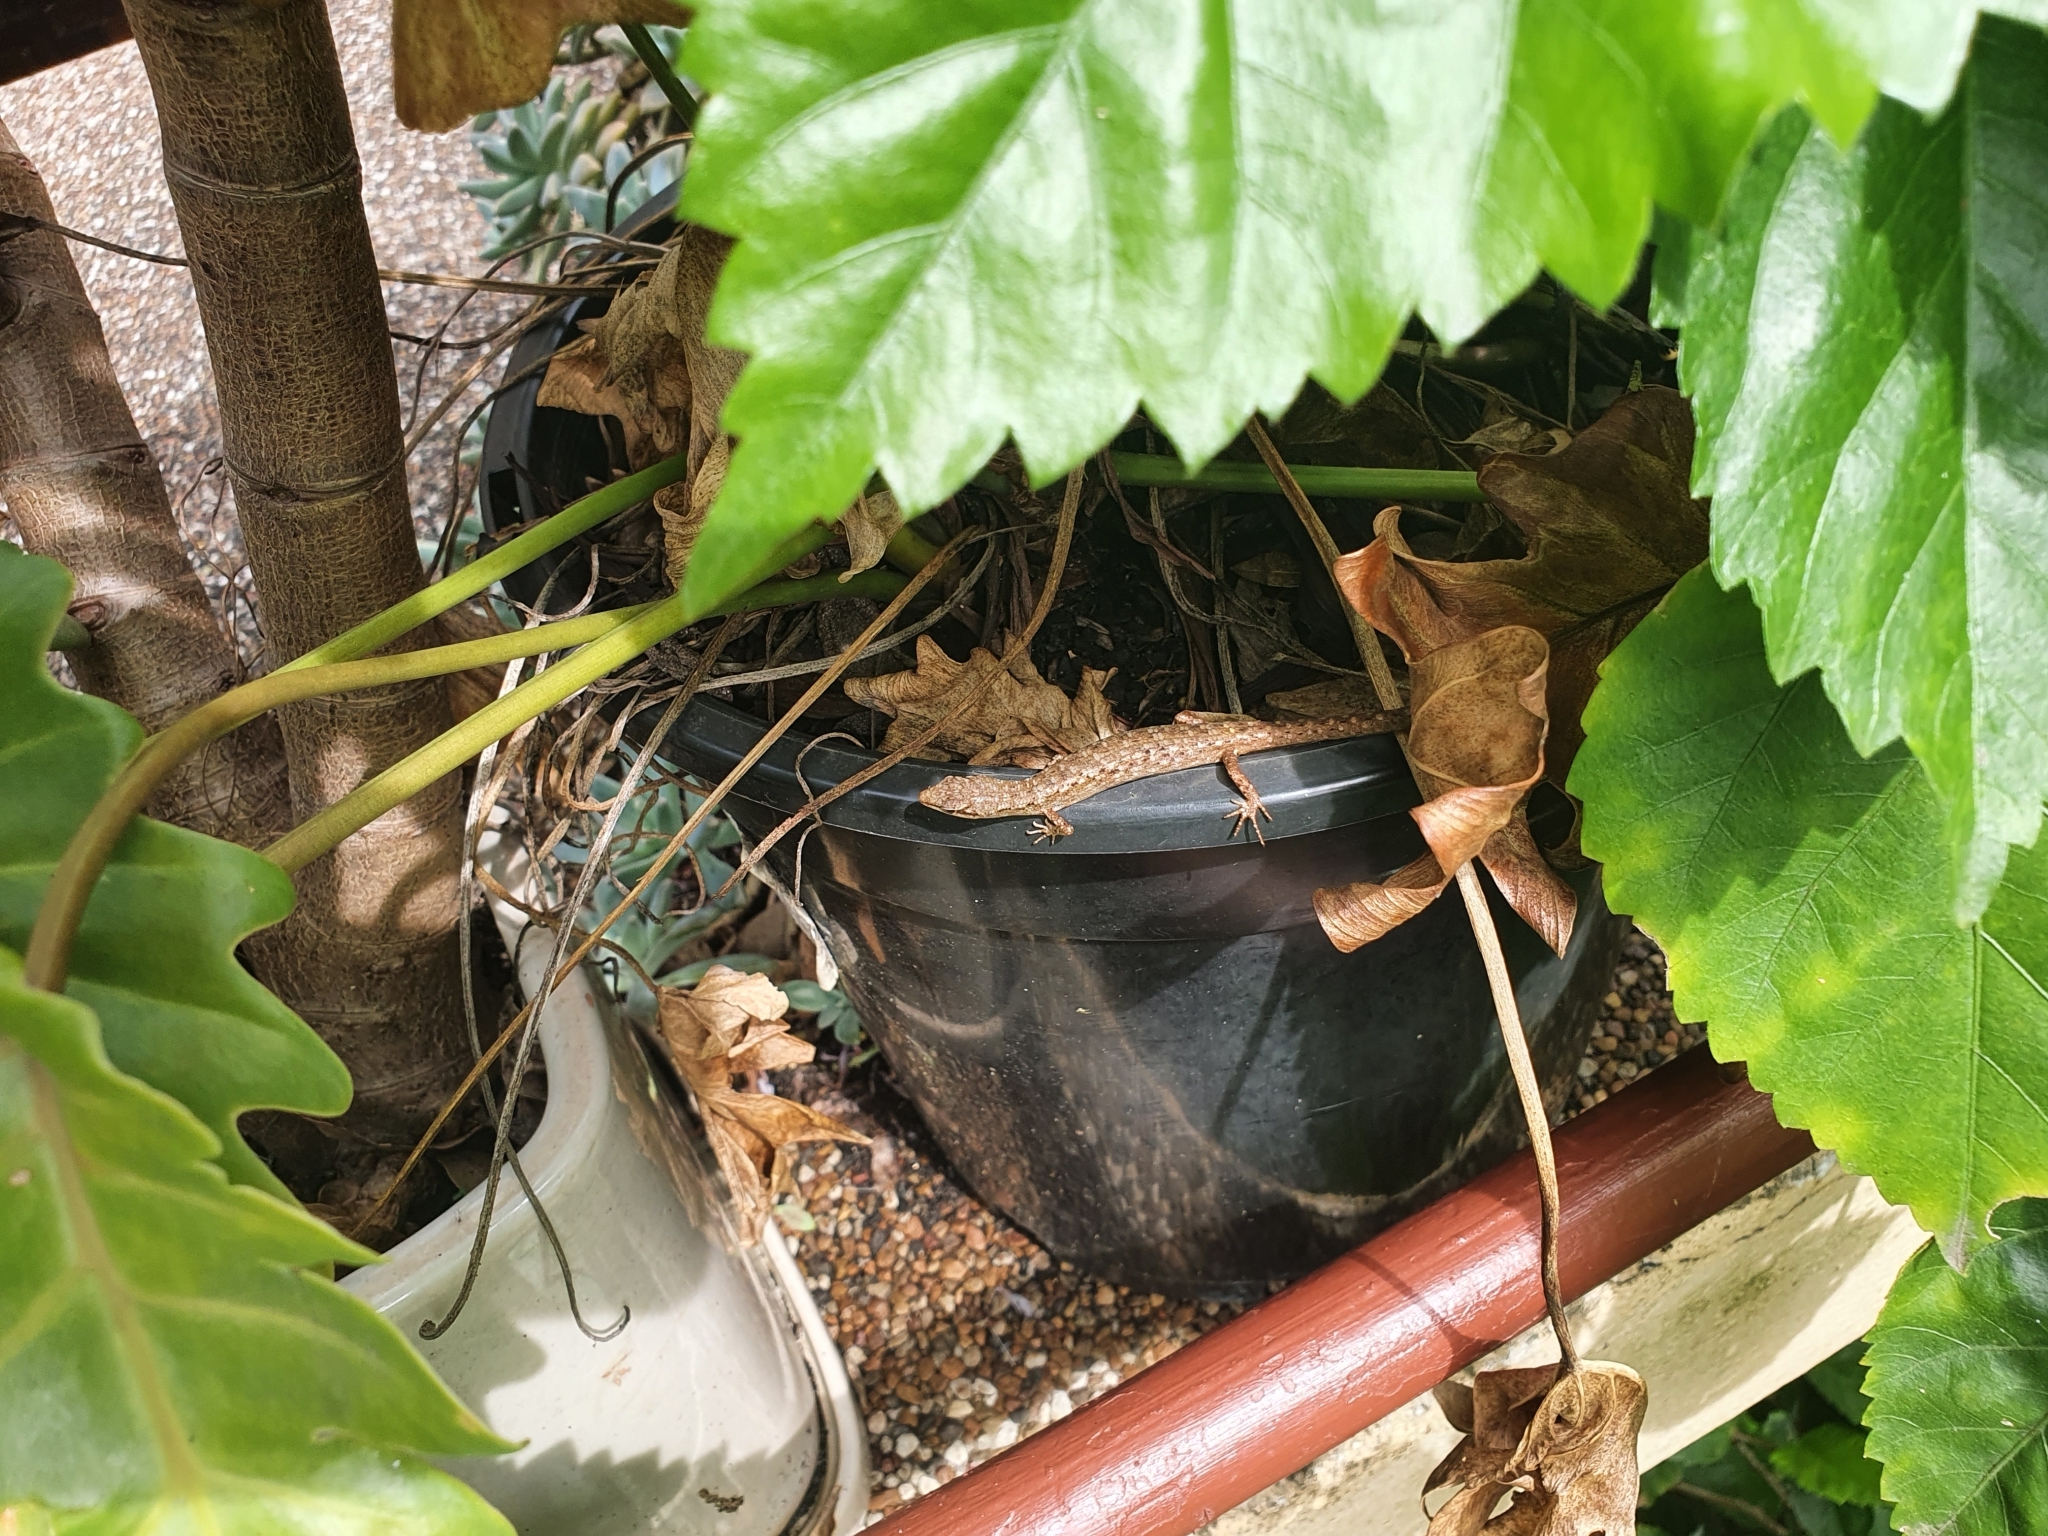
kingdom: Animalia
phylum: Chordata
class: Squamata
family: Scincidae
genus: Saproscincus
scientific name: Saproscincus spectabilis
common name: Gully shadeskink
